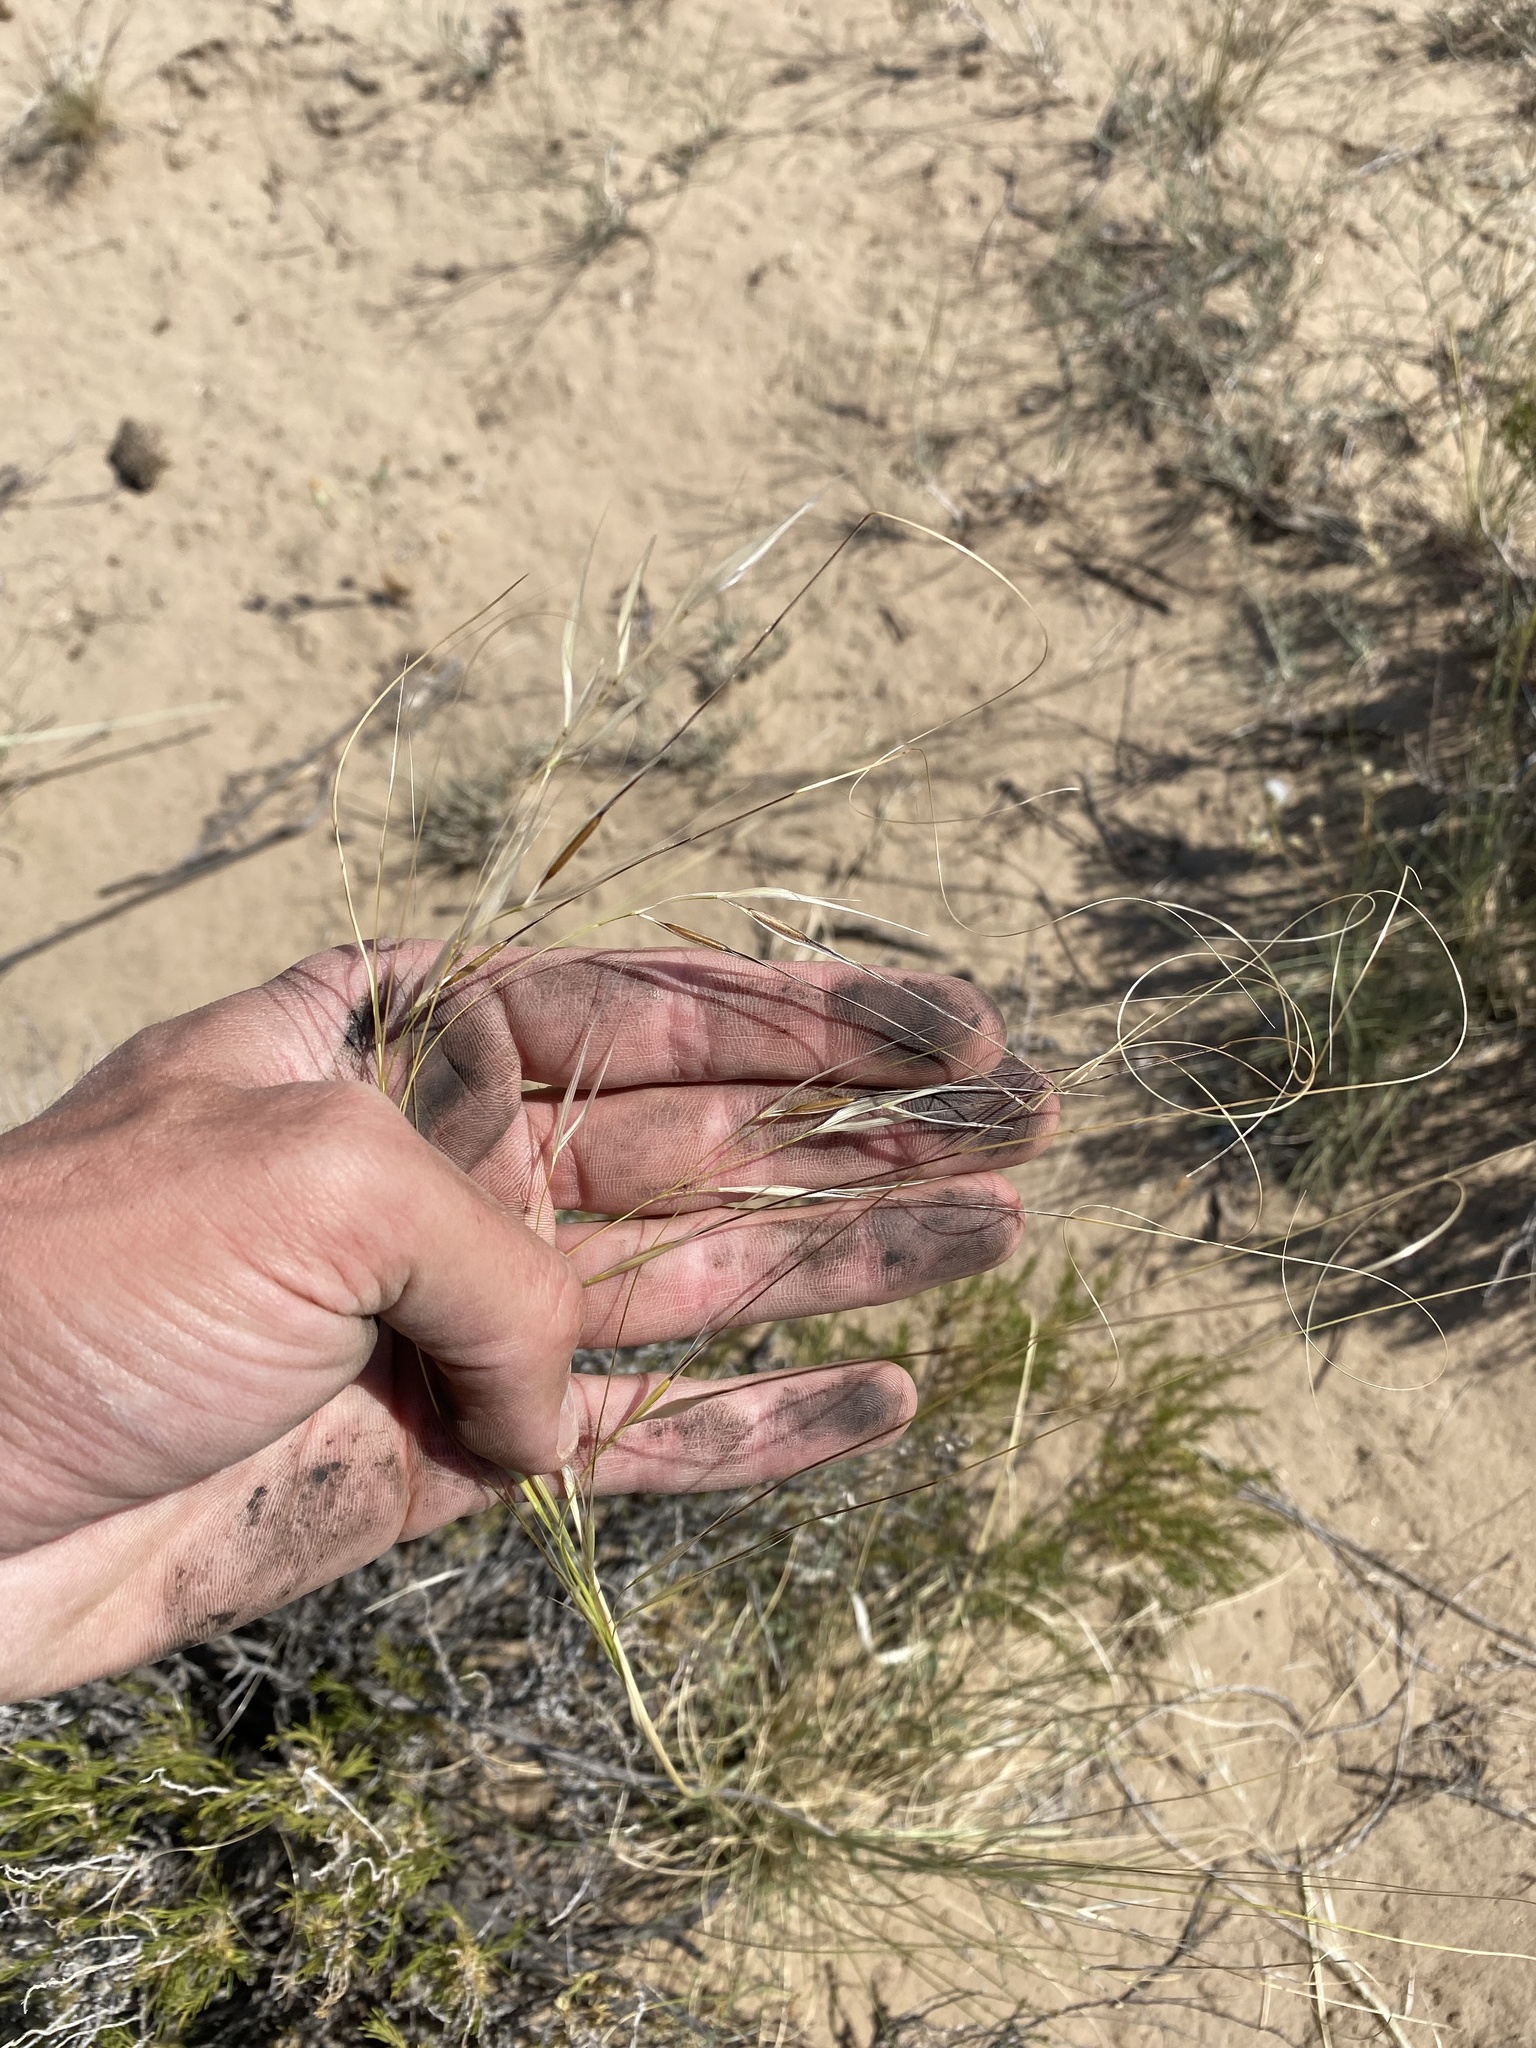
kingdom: Plantae
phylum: Tracheophyta
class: Liliopsida
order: Poales
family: Poaceae
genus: Hesperostipa
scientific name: Hesperostipa comata
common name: Needle-and-thread grass
